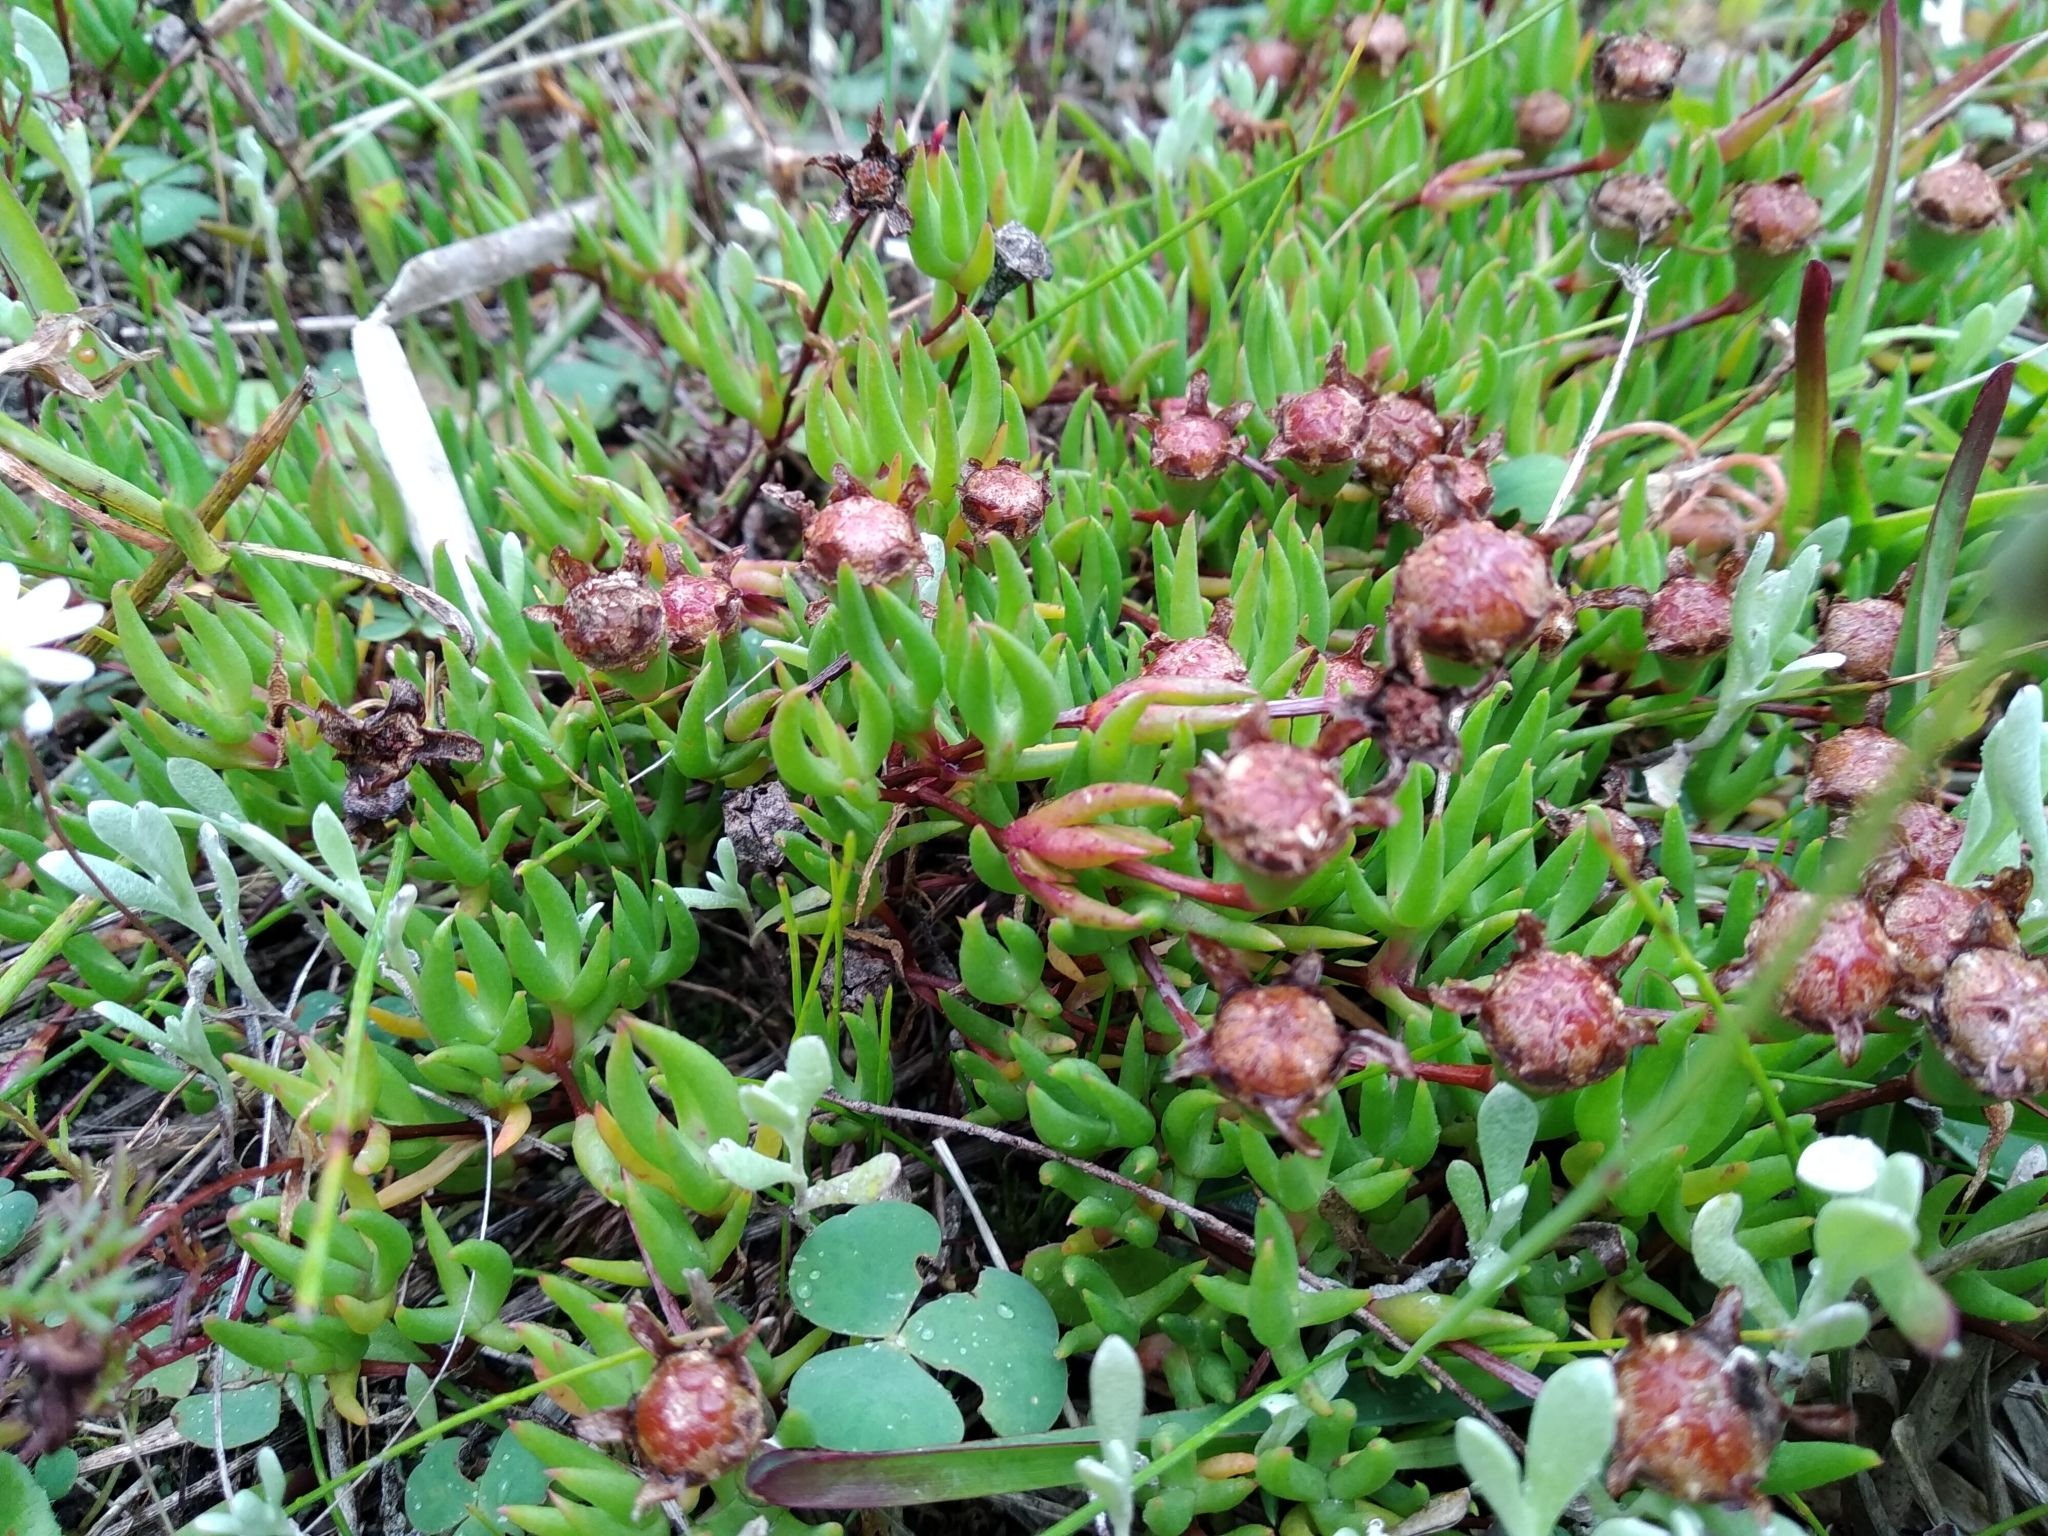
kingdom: Plantae
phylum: Tracheophyta
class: Magnoliopsida
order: Caryophyllales
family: Aizoaceae
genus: Lampranthus
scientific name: Lampranthus filicaulis
